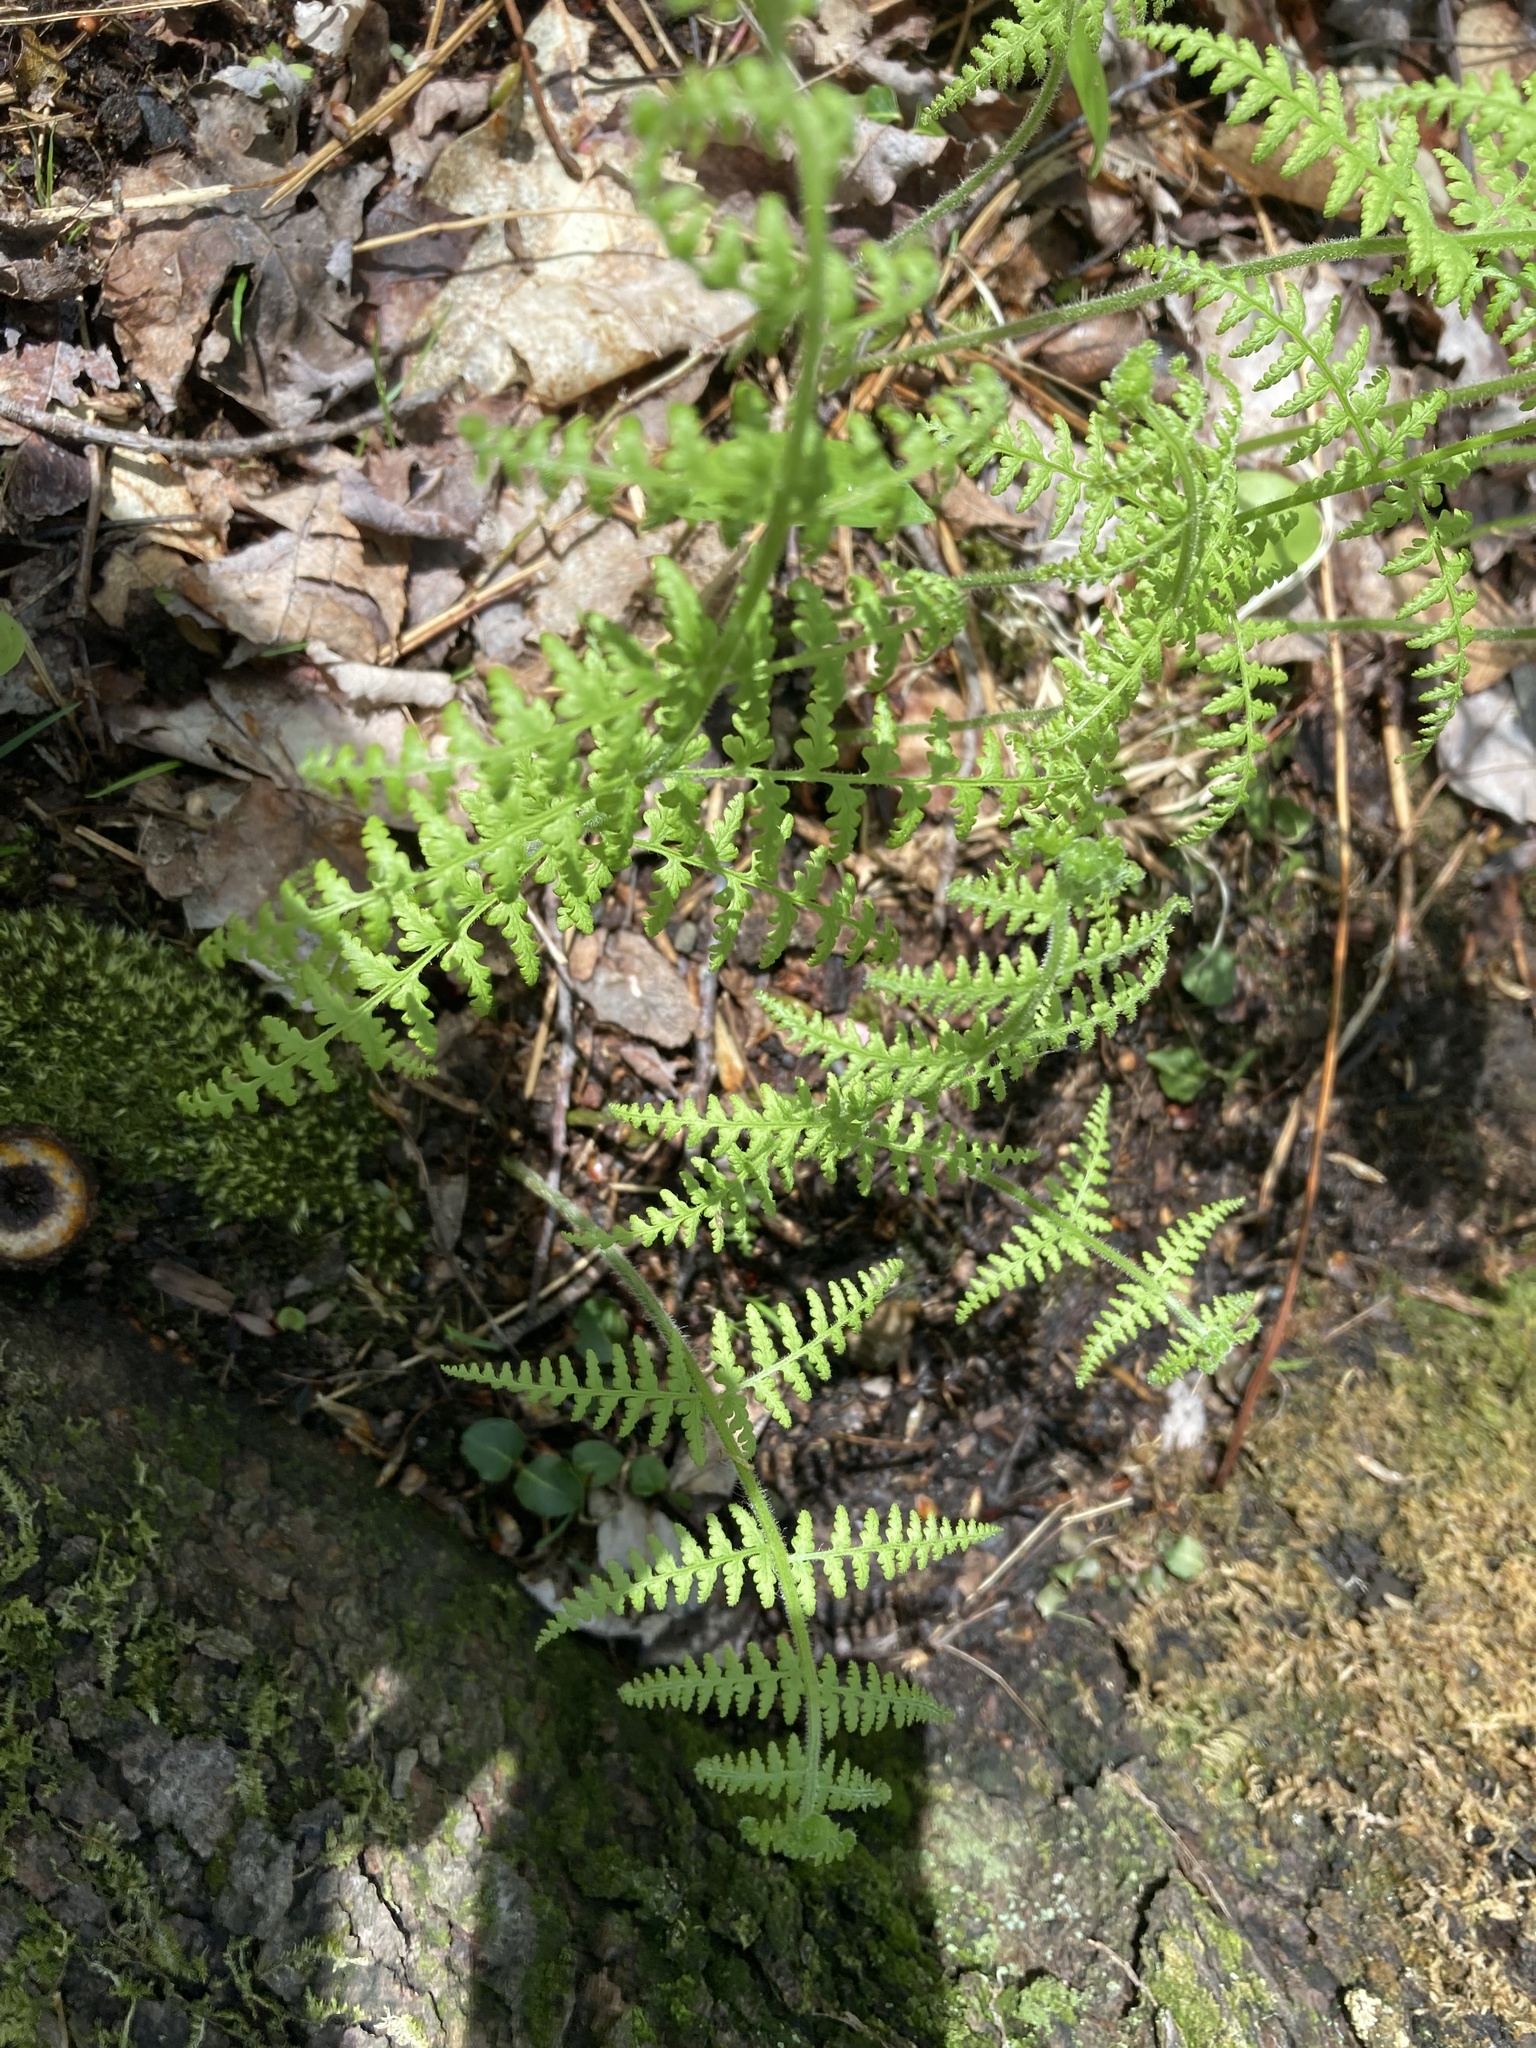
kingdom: Plantae
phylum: Tracheophyta
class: Polypodiopsida
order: Polypodiales
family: Dennstaedtiaceae
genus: Sitobolium
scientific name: Sitobolium punctilobum
